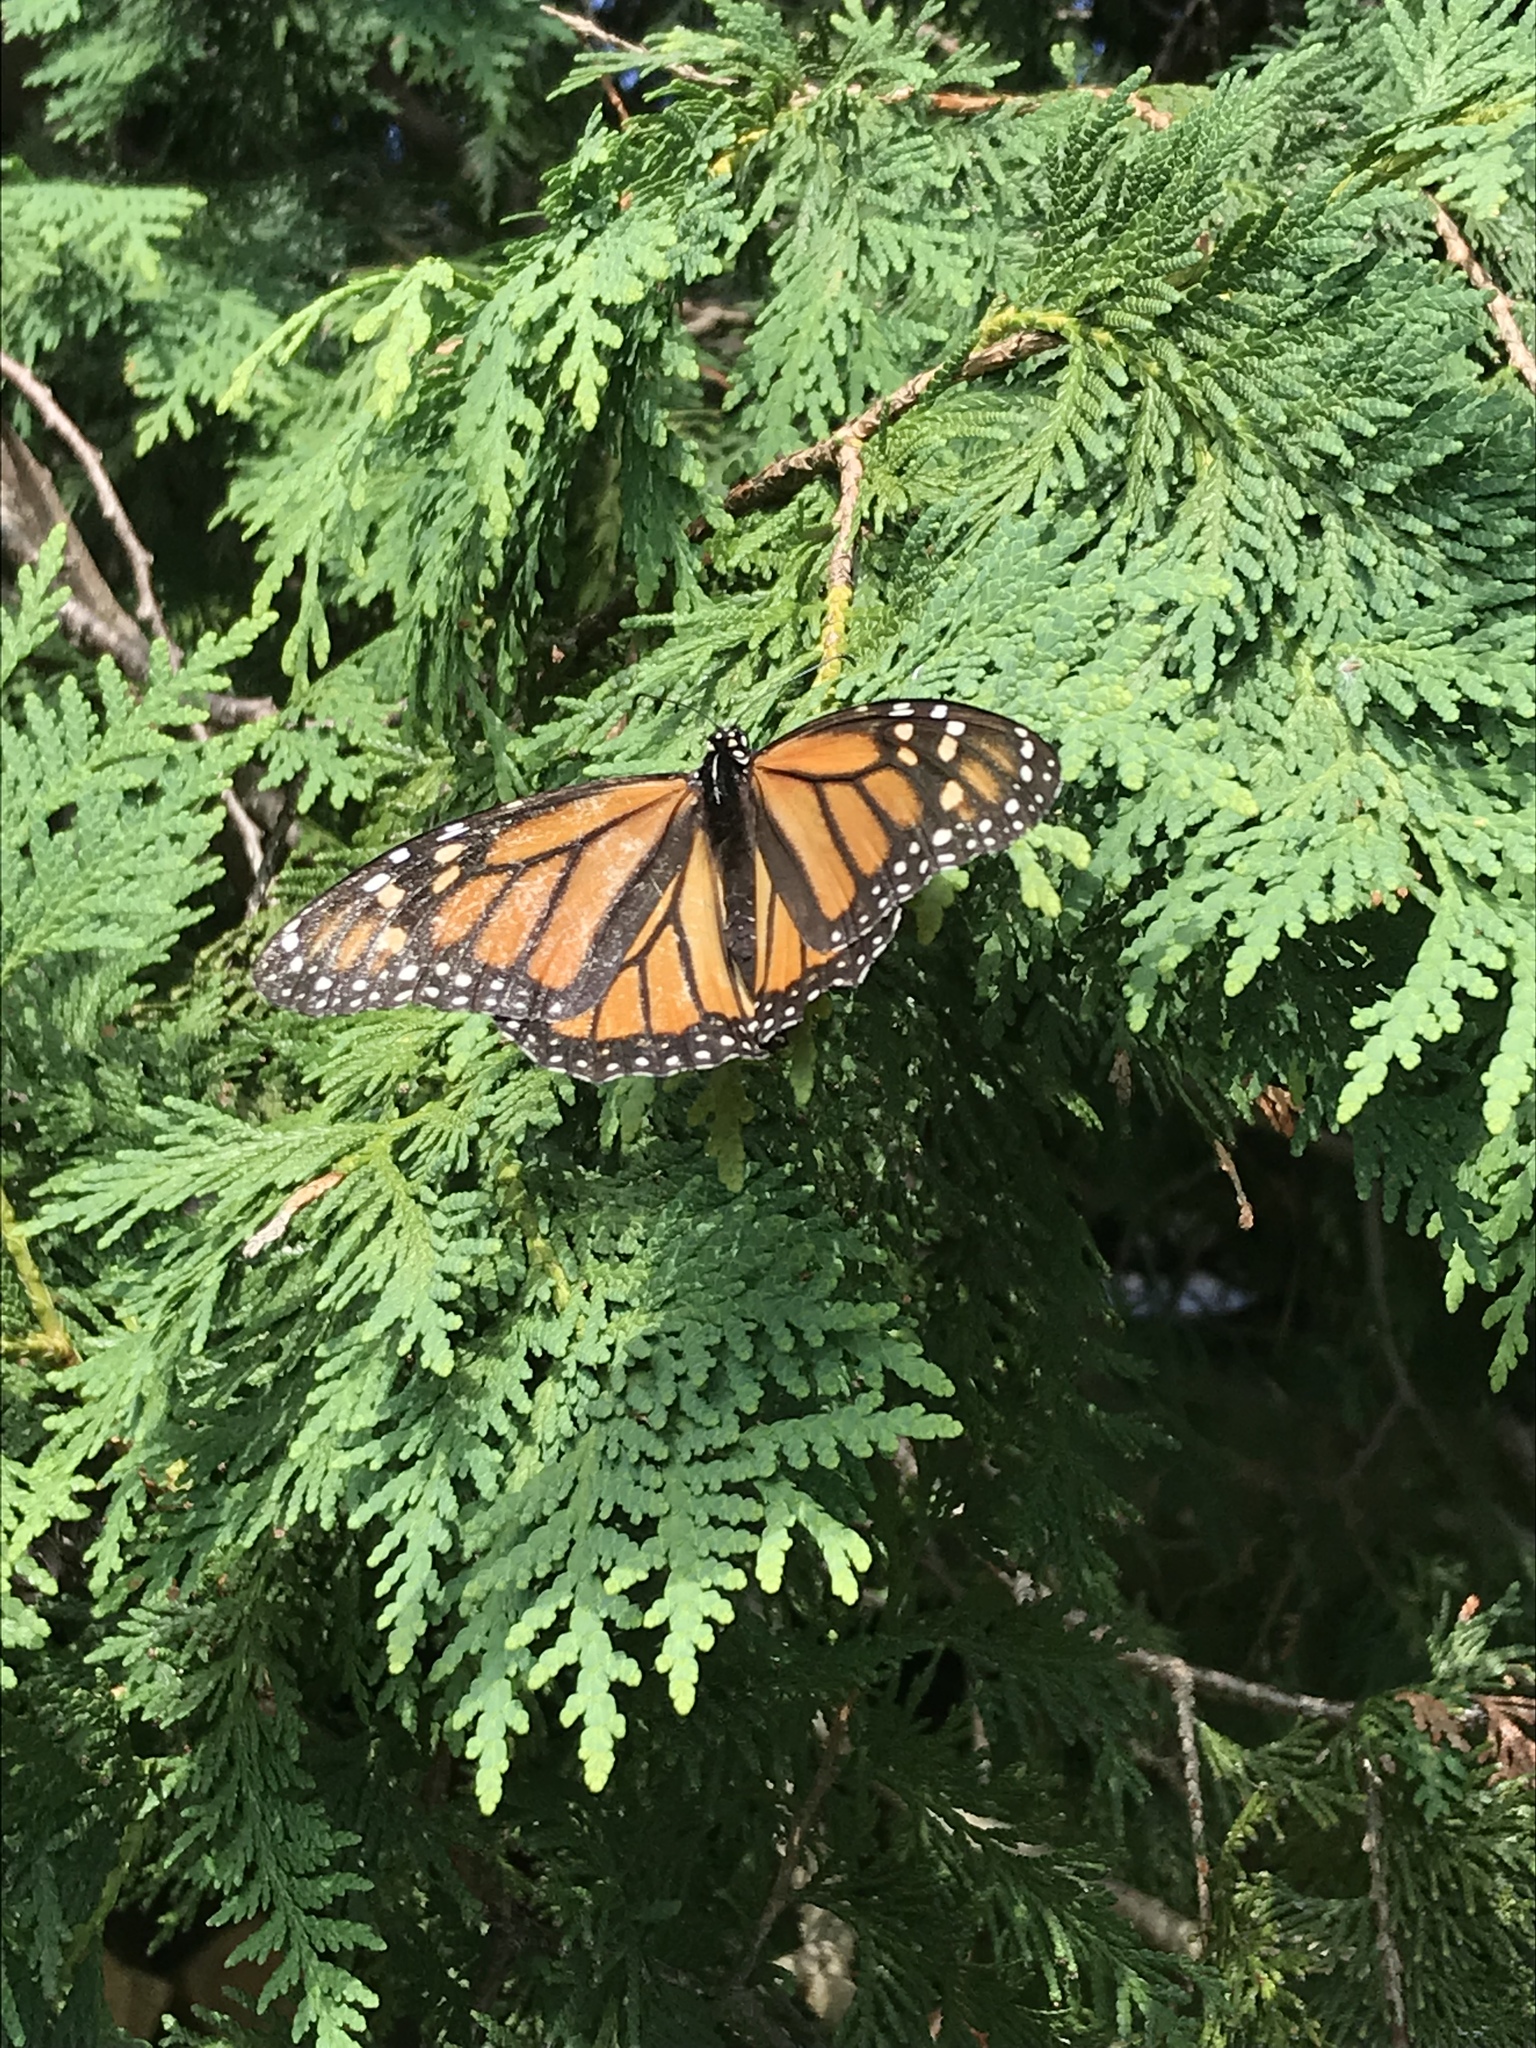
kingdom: Animalia
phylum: Arthropoda
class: Insecta
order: Lepidoptera
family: Nymphalidae
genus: Danaus
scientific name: Danaus plexippus
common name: Monarch
